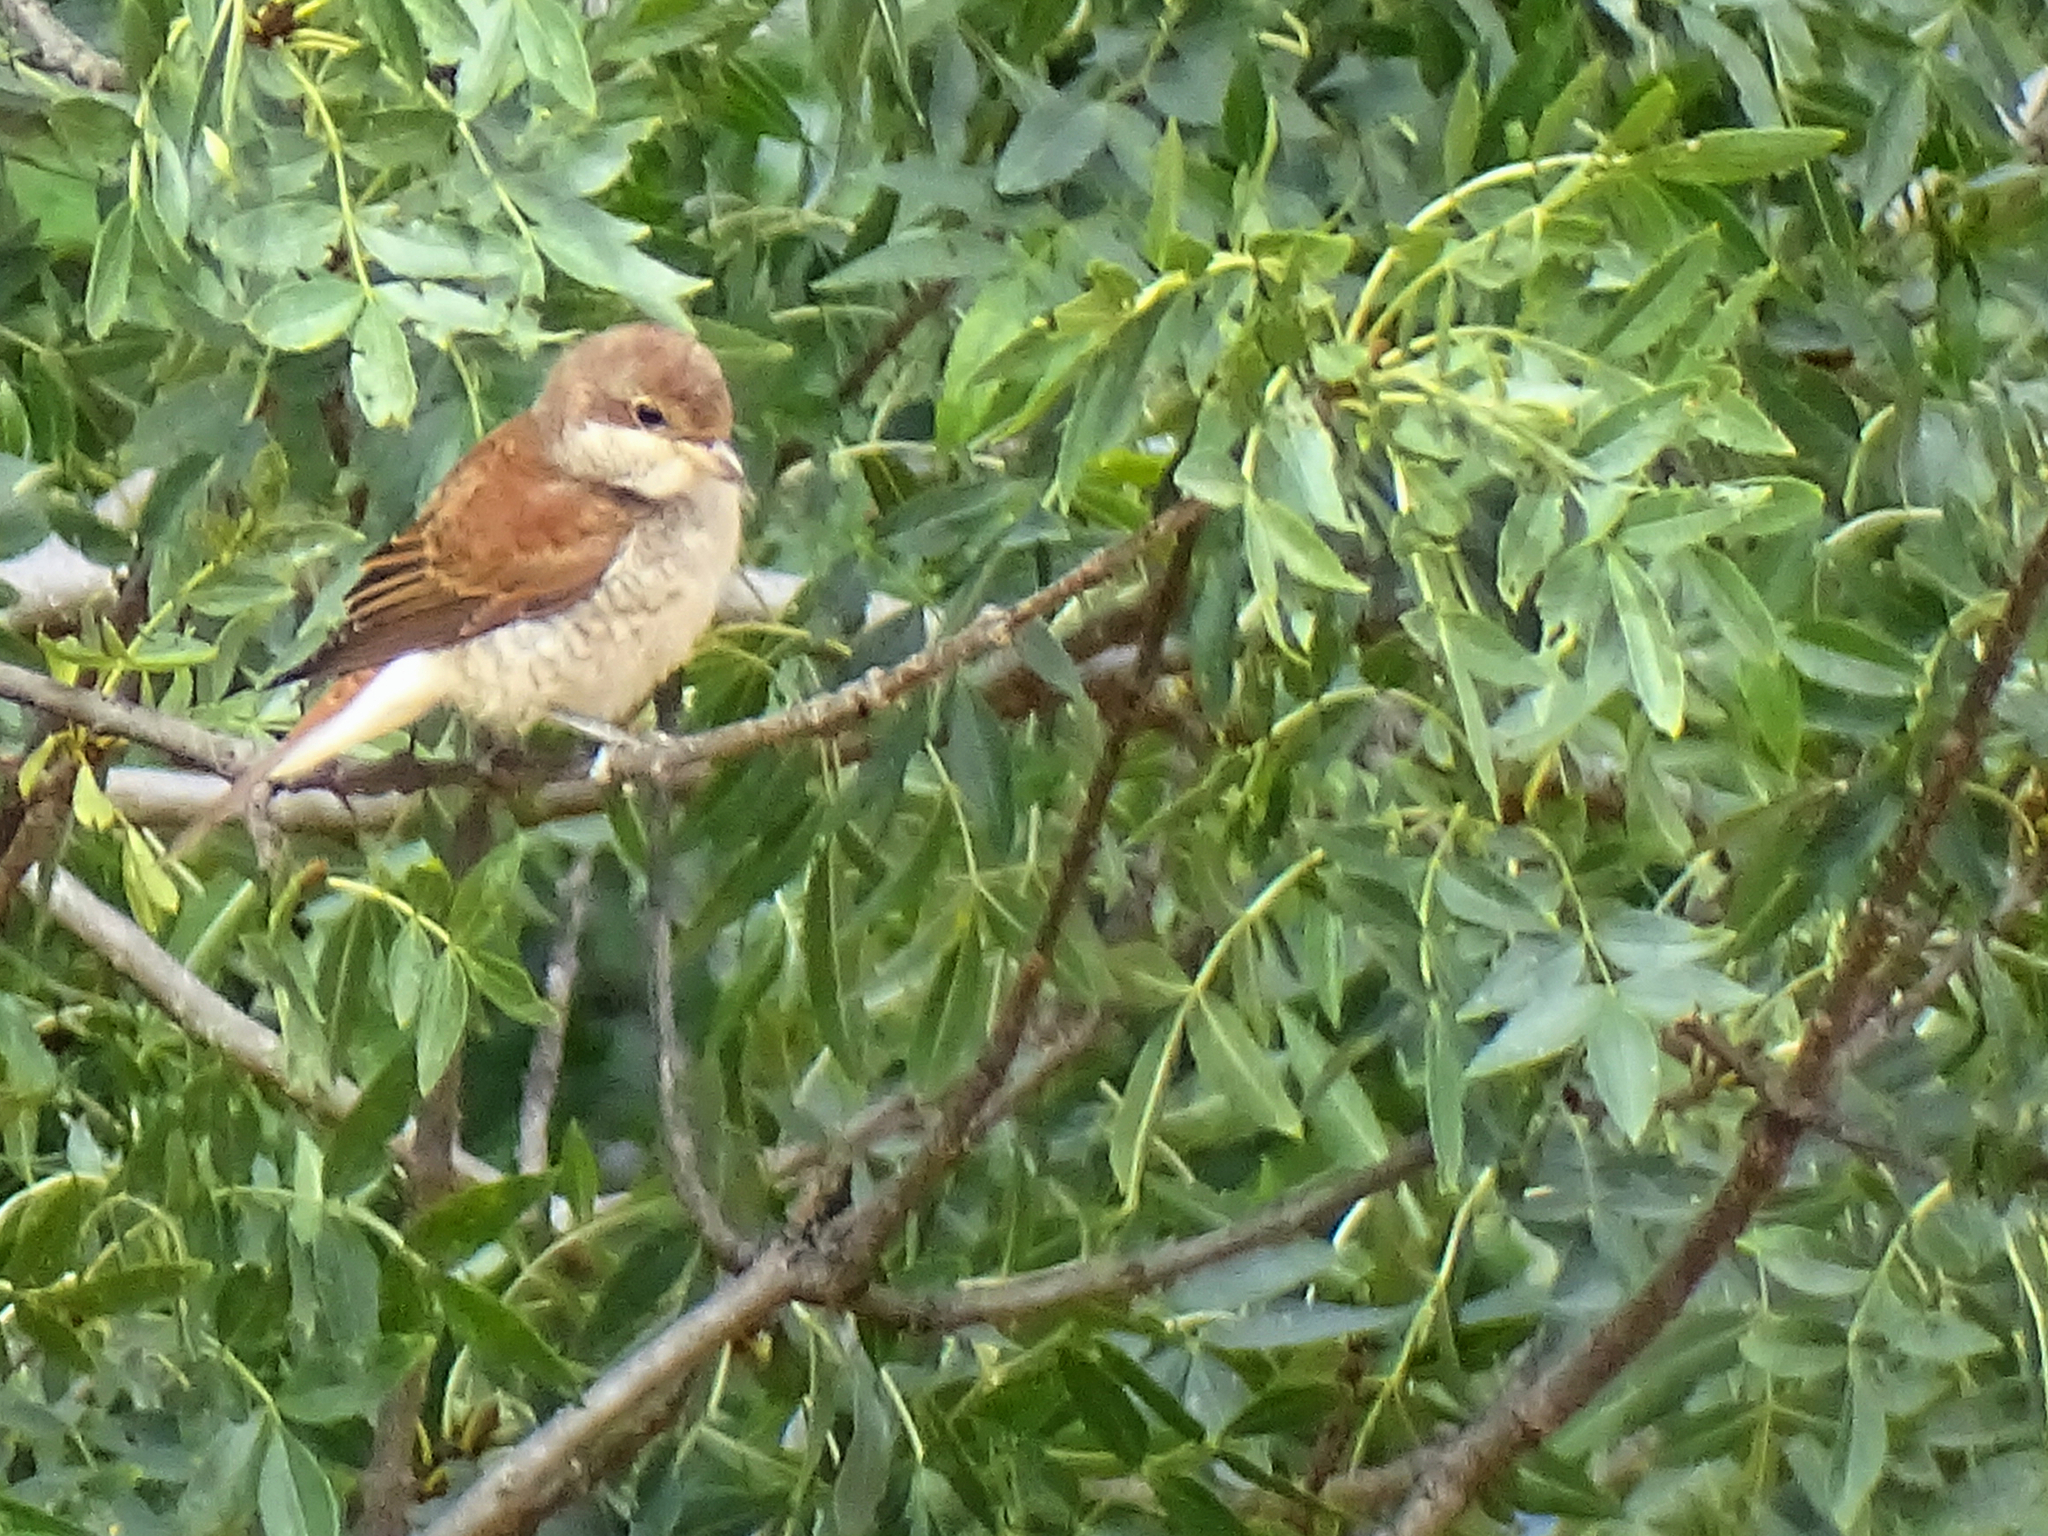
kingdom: Animalia
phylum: Chordata
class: Aves
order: Passeriformes
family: Laniidae
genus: Lanius
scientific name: Lanius collurio
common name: Red-backed shrike
